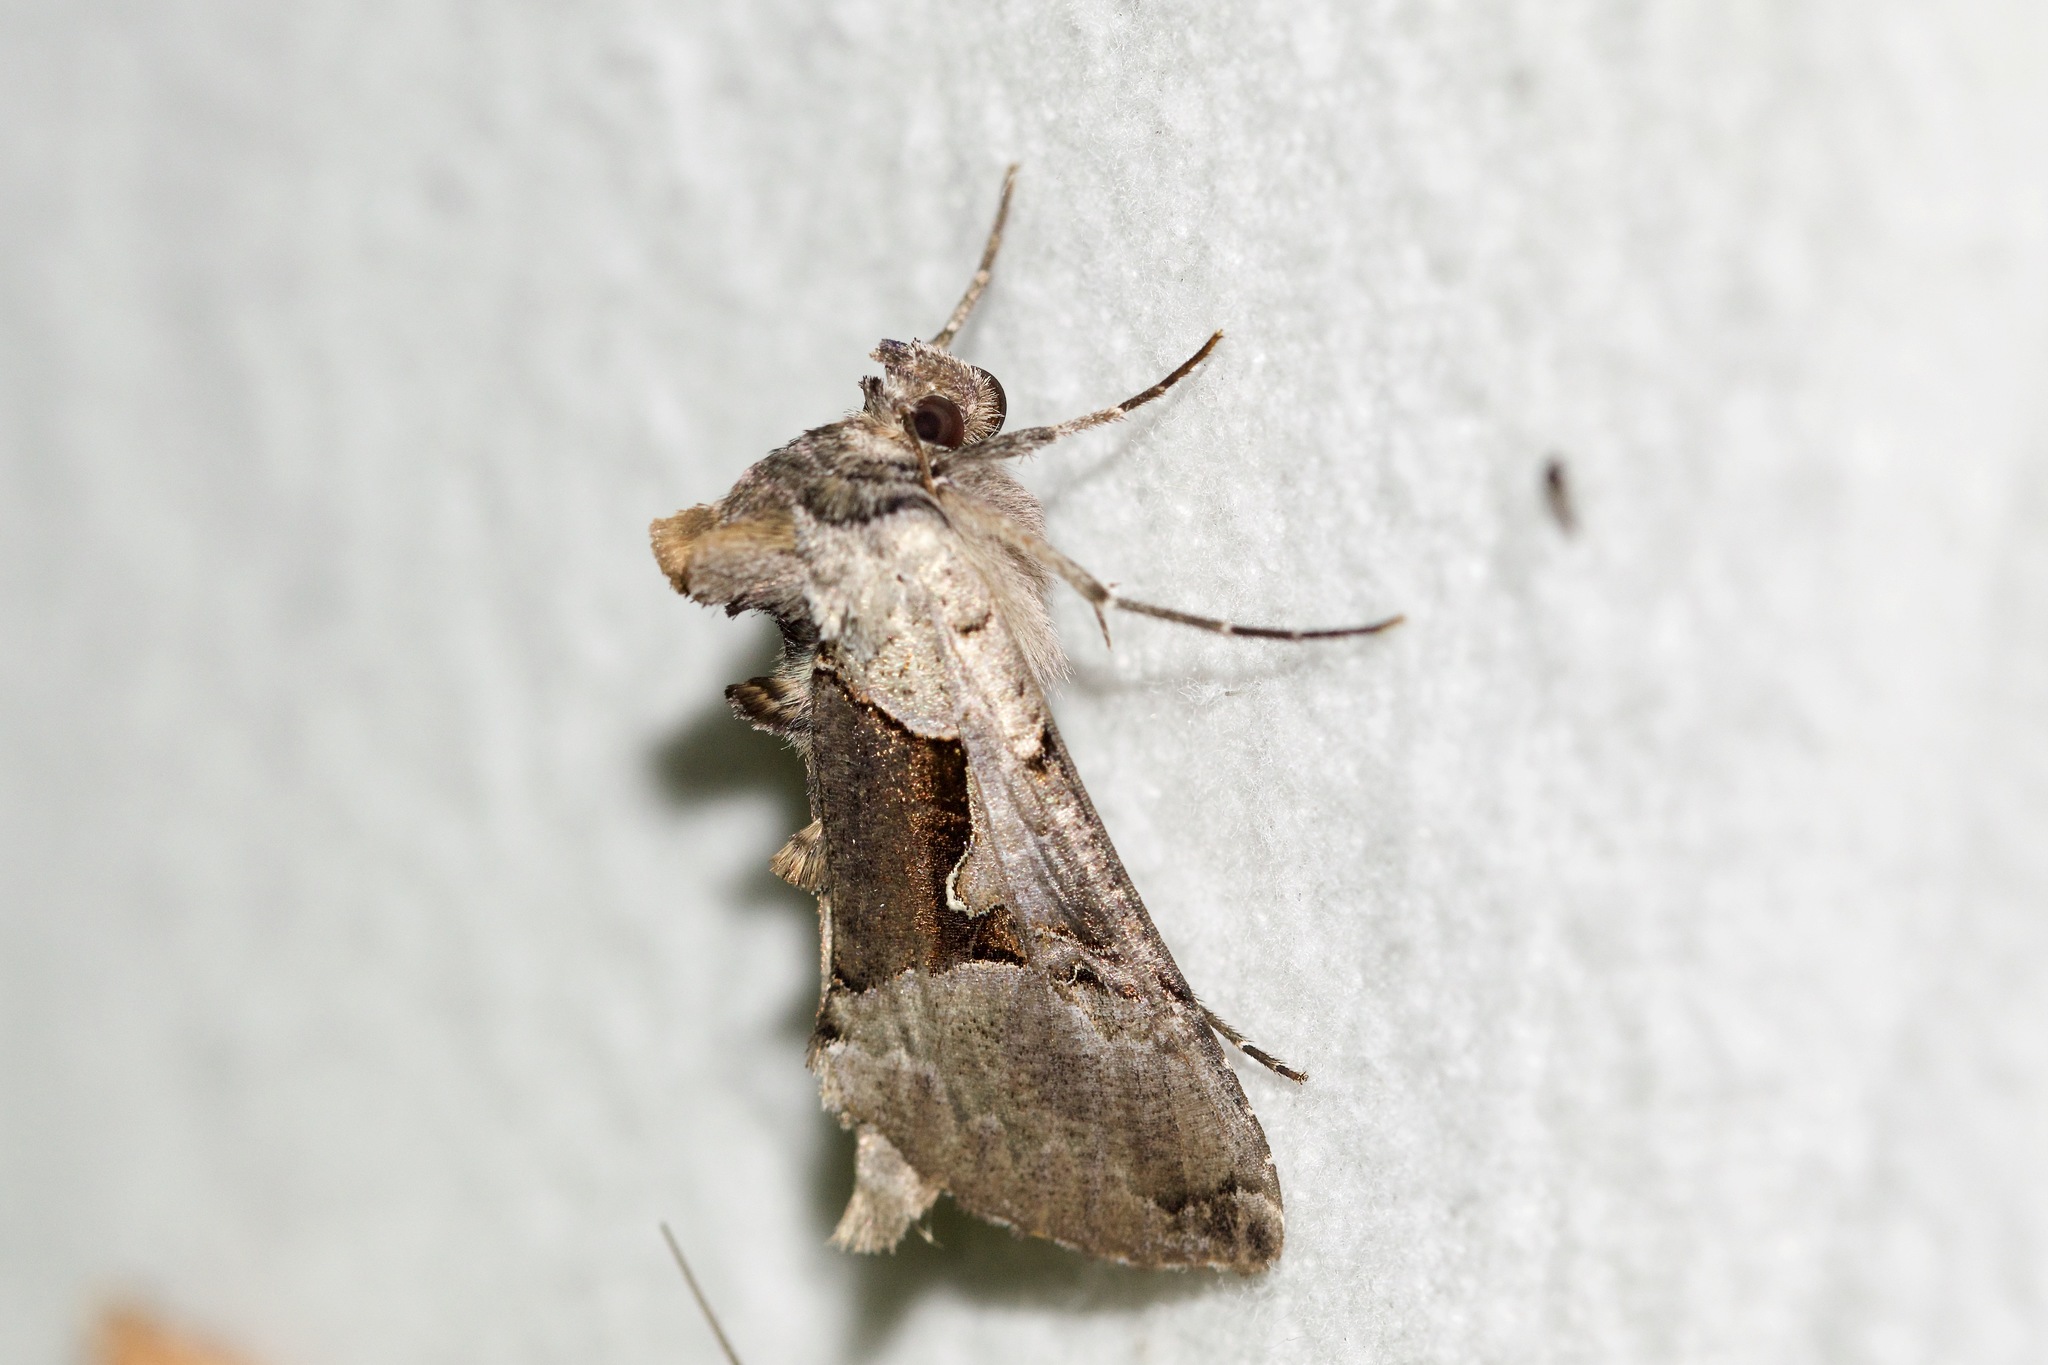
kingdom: Animalia
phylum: Arthropoda
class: Insecta
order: Lepidoptera
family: Noctuidae
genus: Autographa
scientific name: Autographa ampla
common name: Large looper moth
